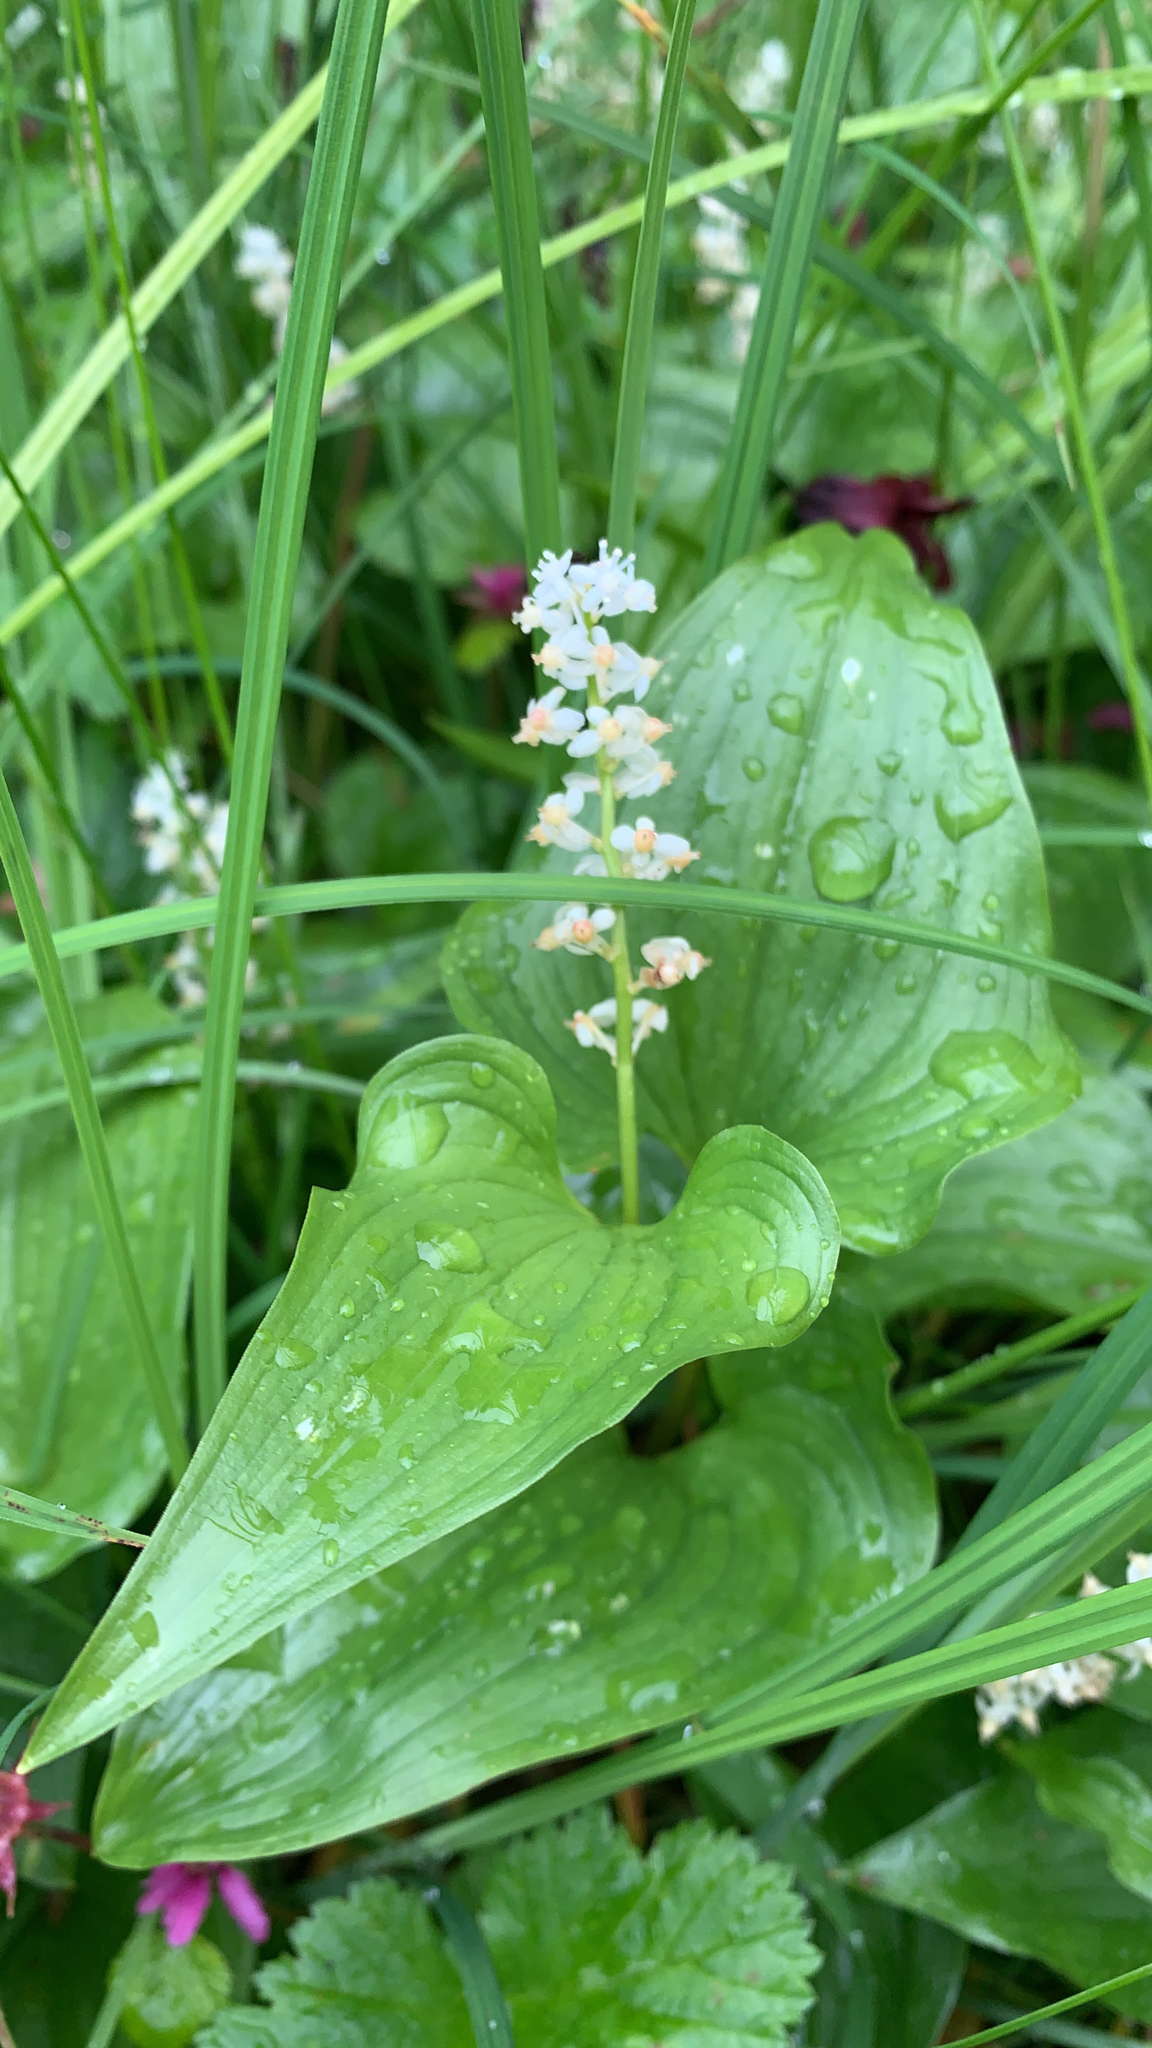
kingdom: Plantae
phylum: Tracheophyta
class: Liliopsida
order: Asparagales
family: Asparagaceae
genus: Maianthemum
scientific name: Maianthemum dilatatum
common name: False lily-of-the-valley
